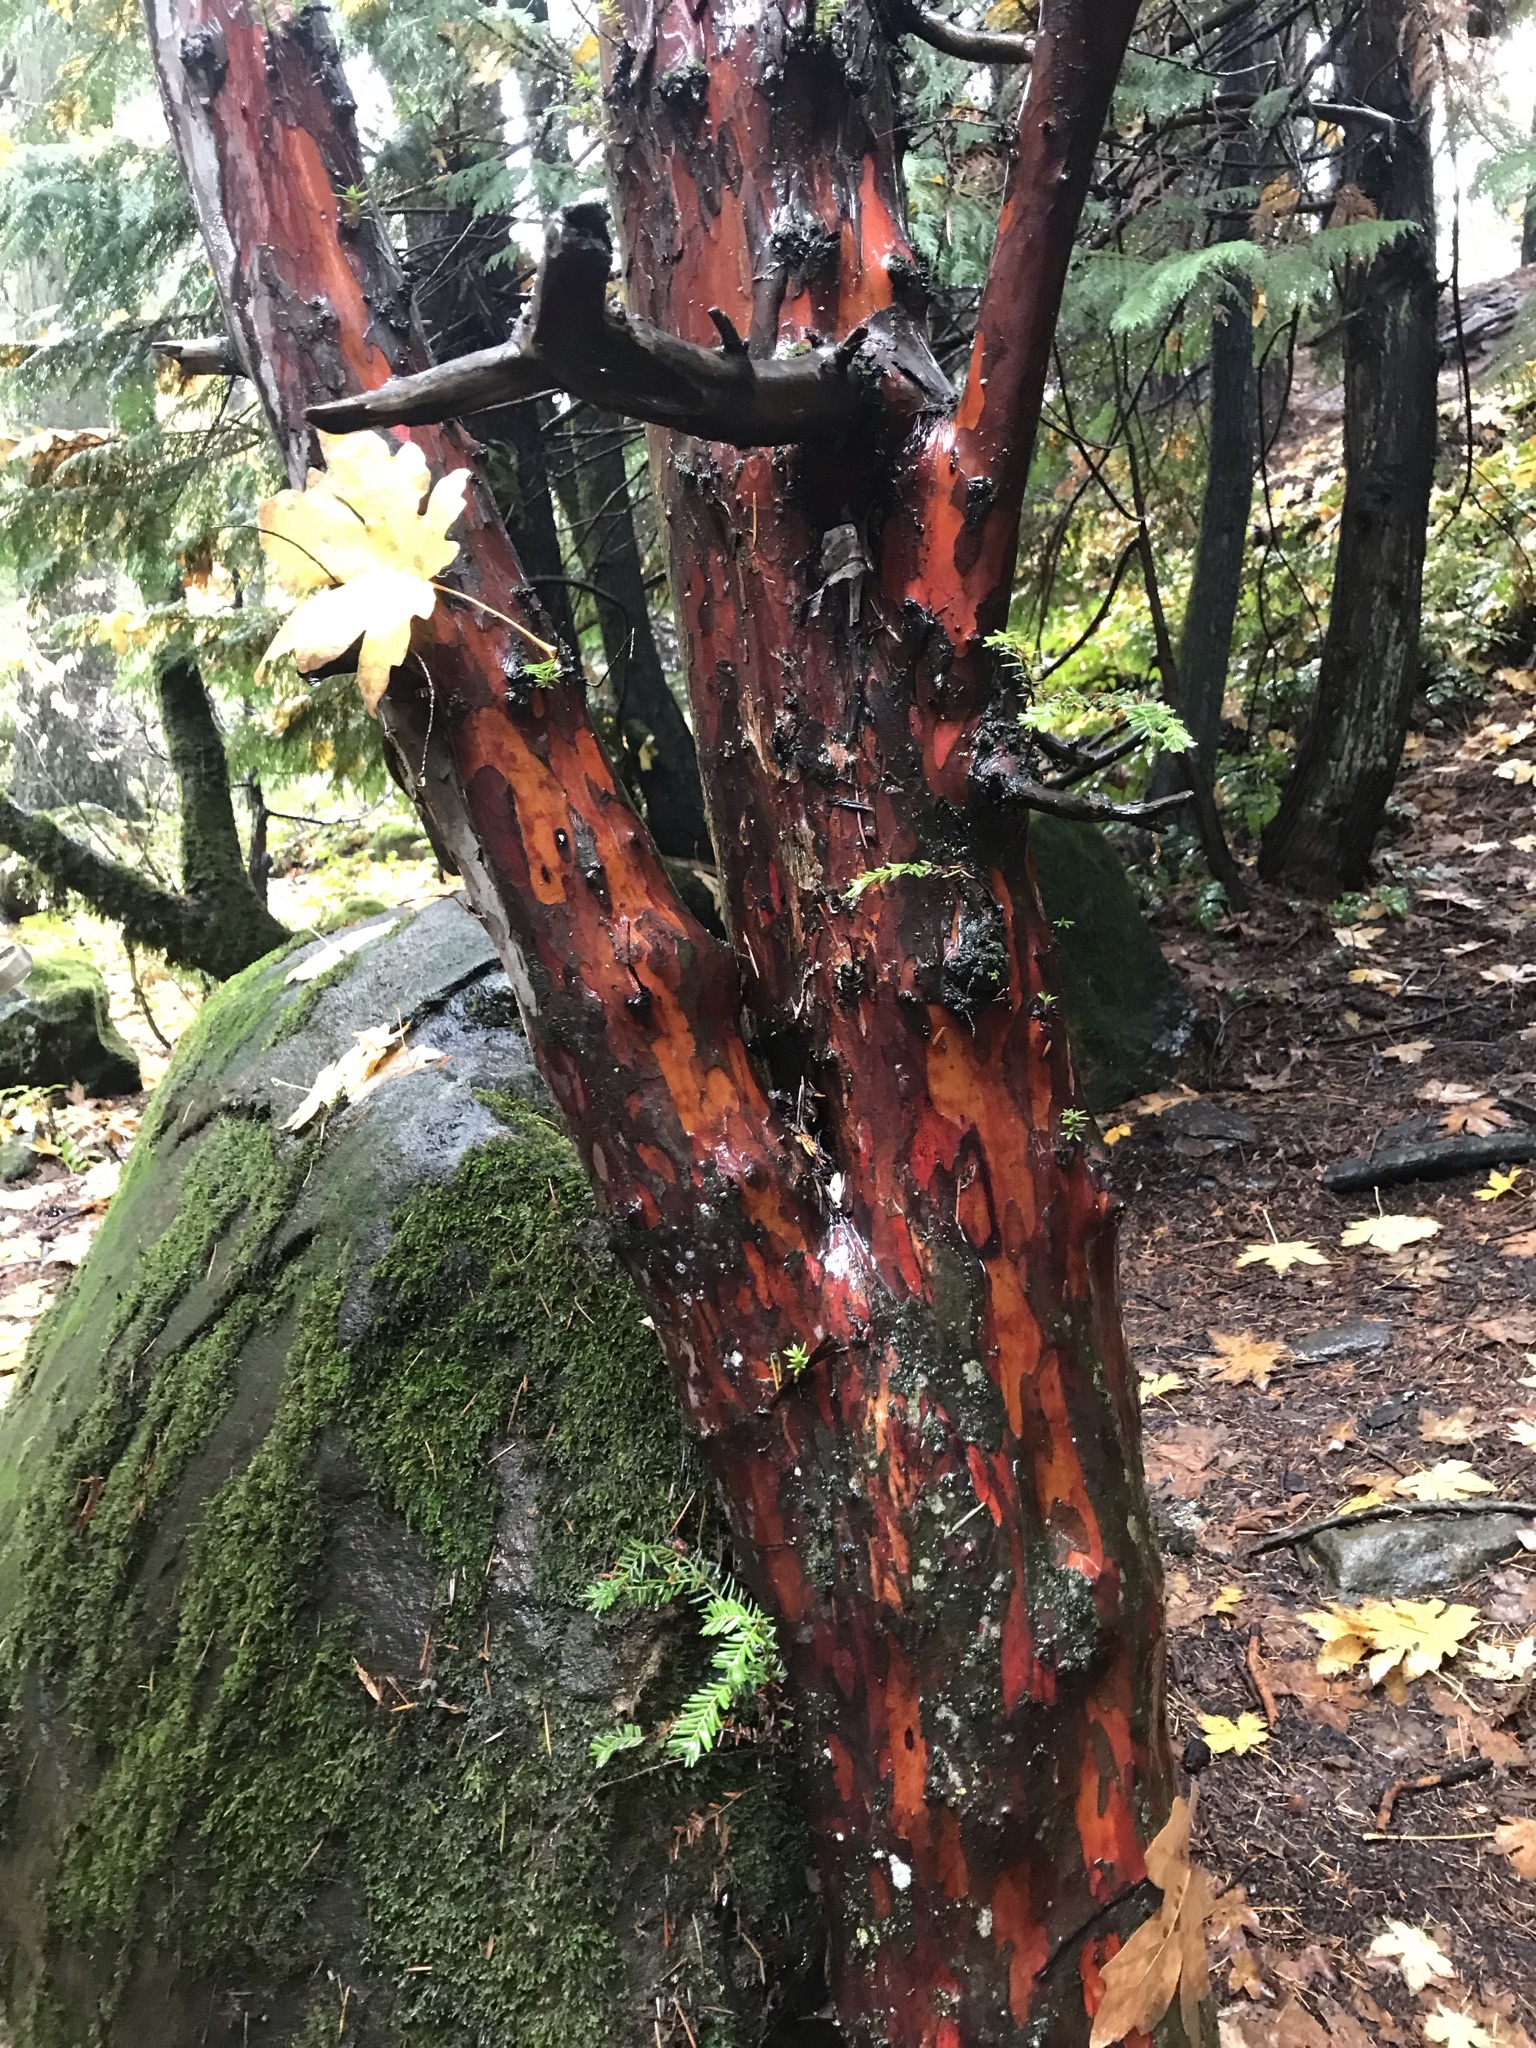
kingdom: Plantae
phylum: Tracheophyta
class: Pinopsida
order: Pinales
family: Taxaceae
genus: Taxus
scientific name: Taxus brevifolia
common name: Pacific yew
